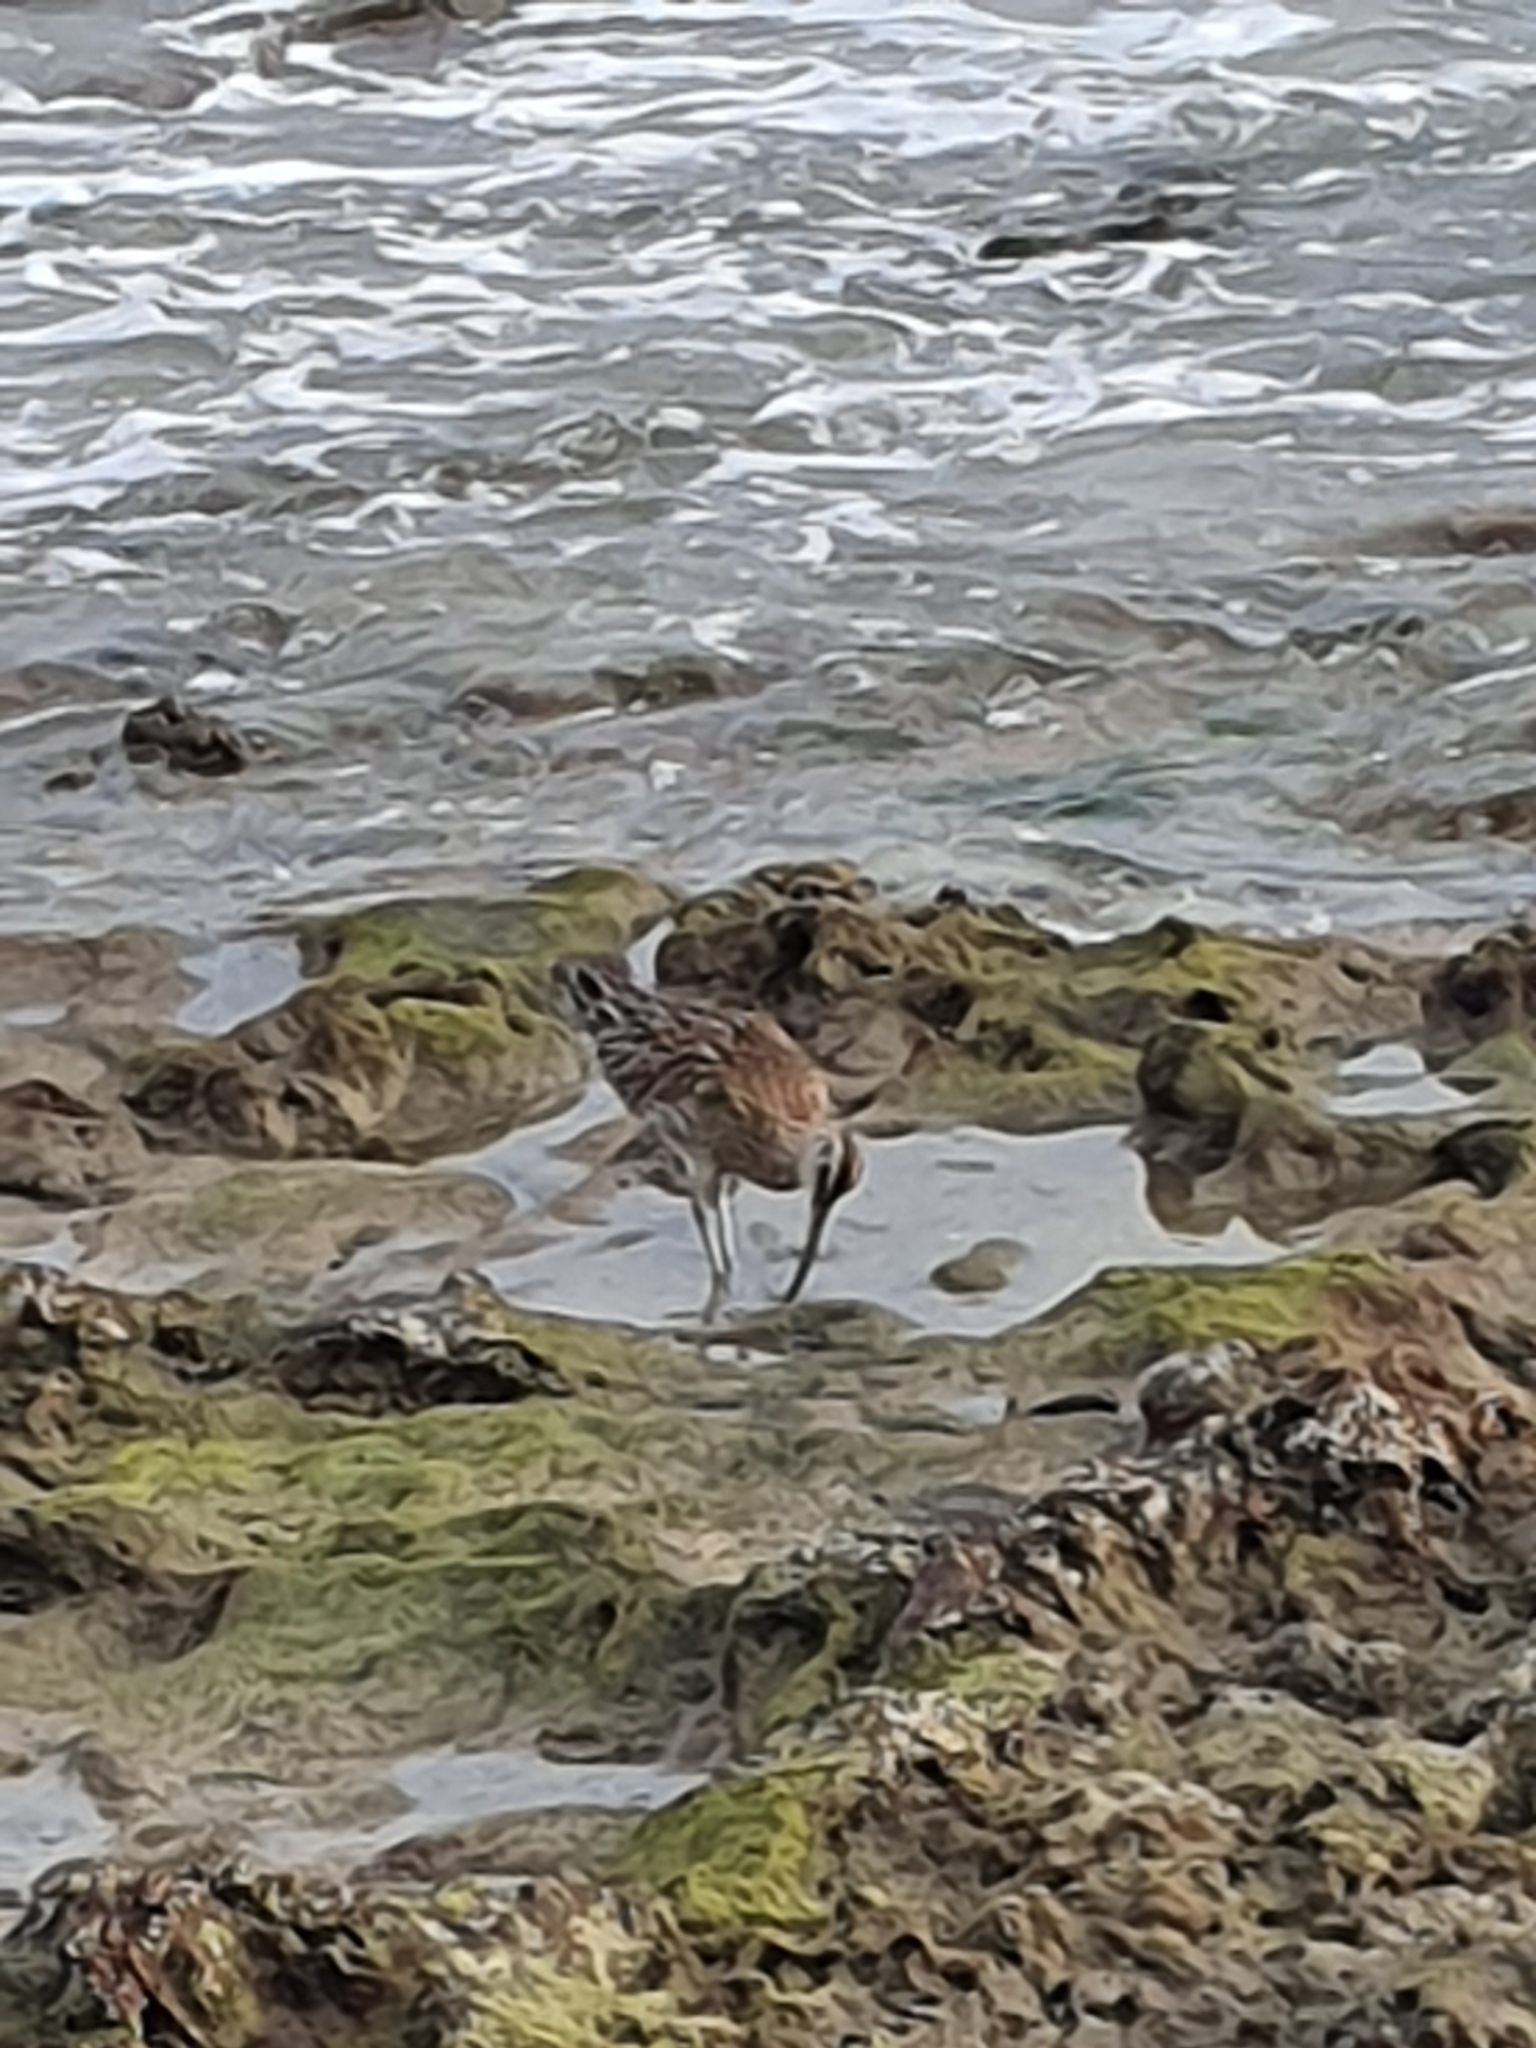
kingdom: Animalia
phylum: Chordata
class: Aves
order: Charadriiformes
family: Scolopacidae
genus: Numenius
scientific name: Numenius phaeopus
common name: Whimbrel
